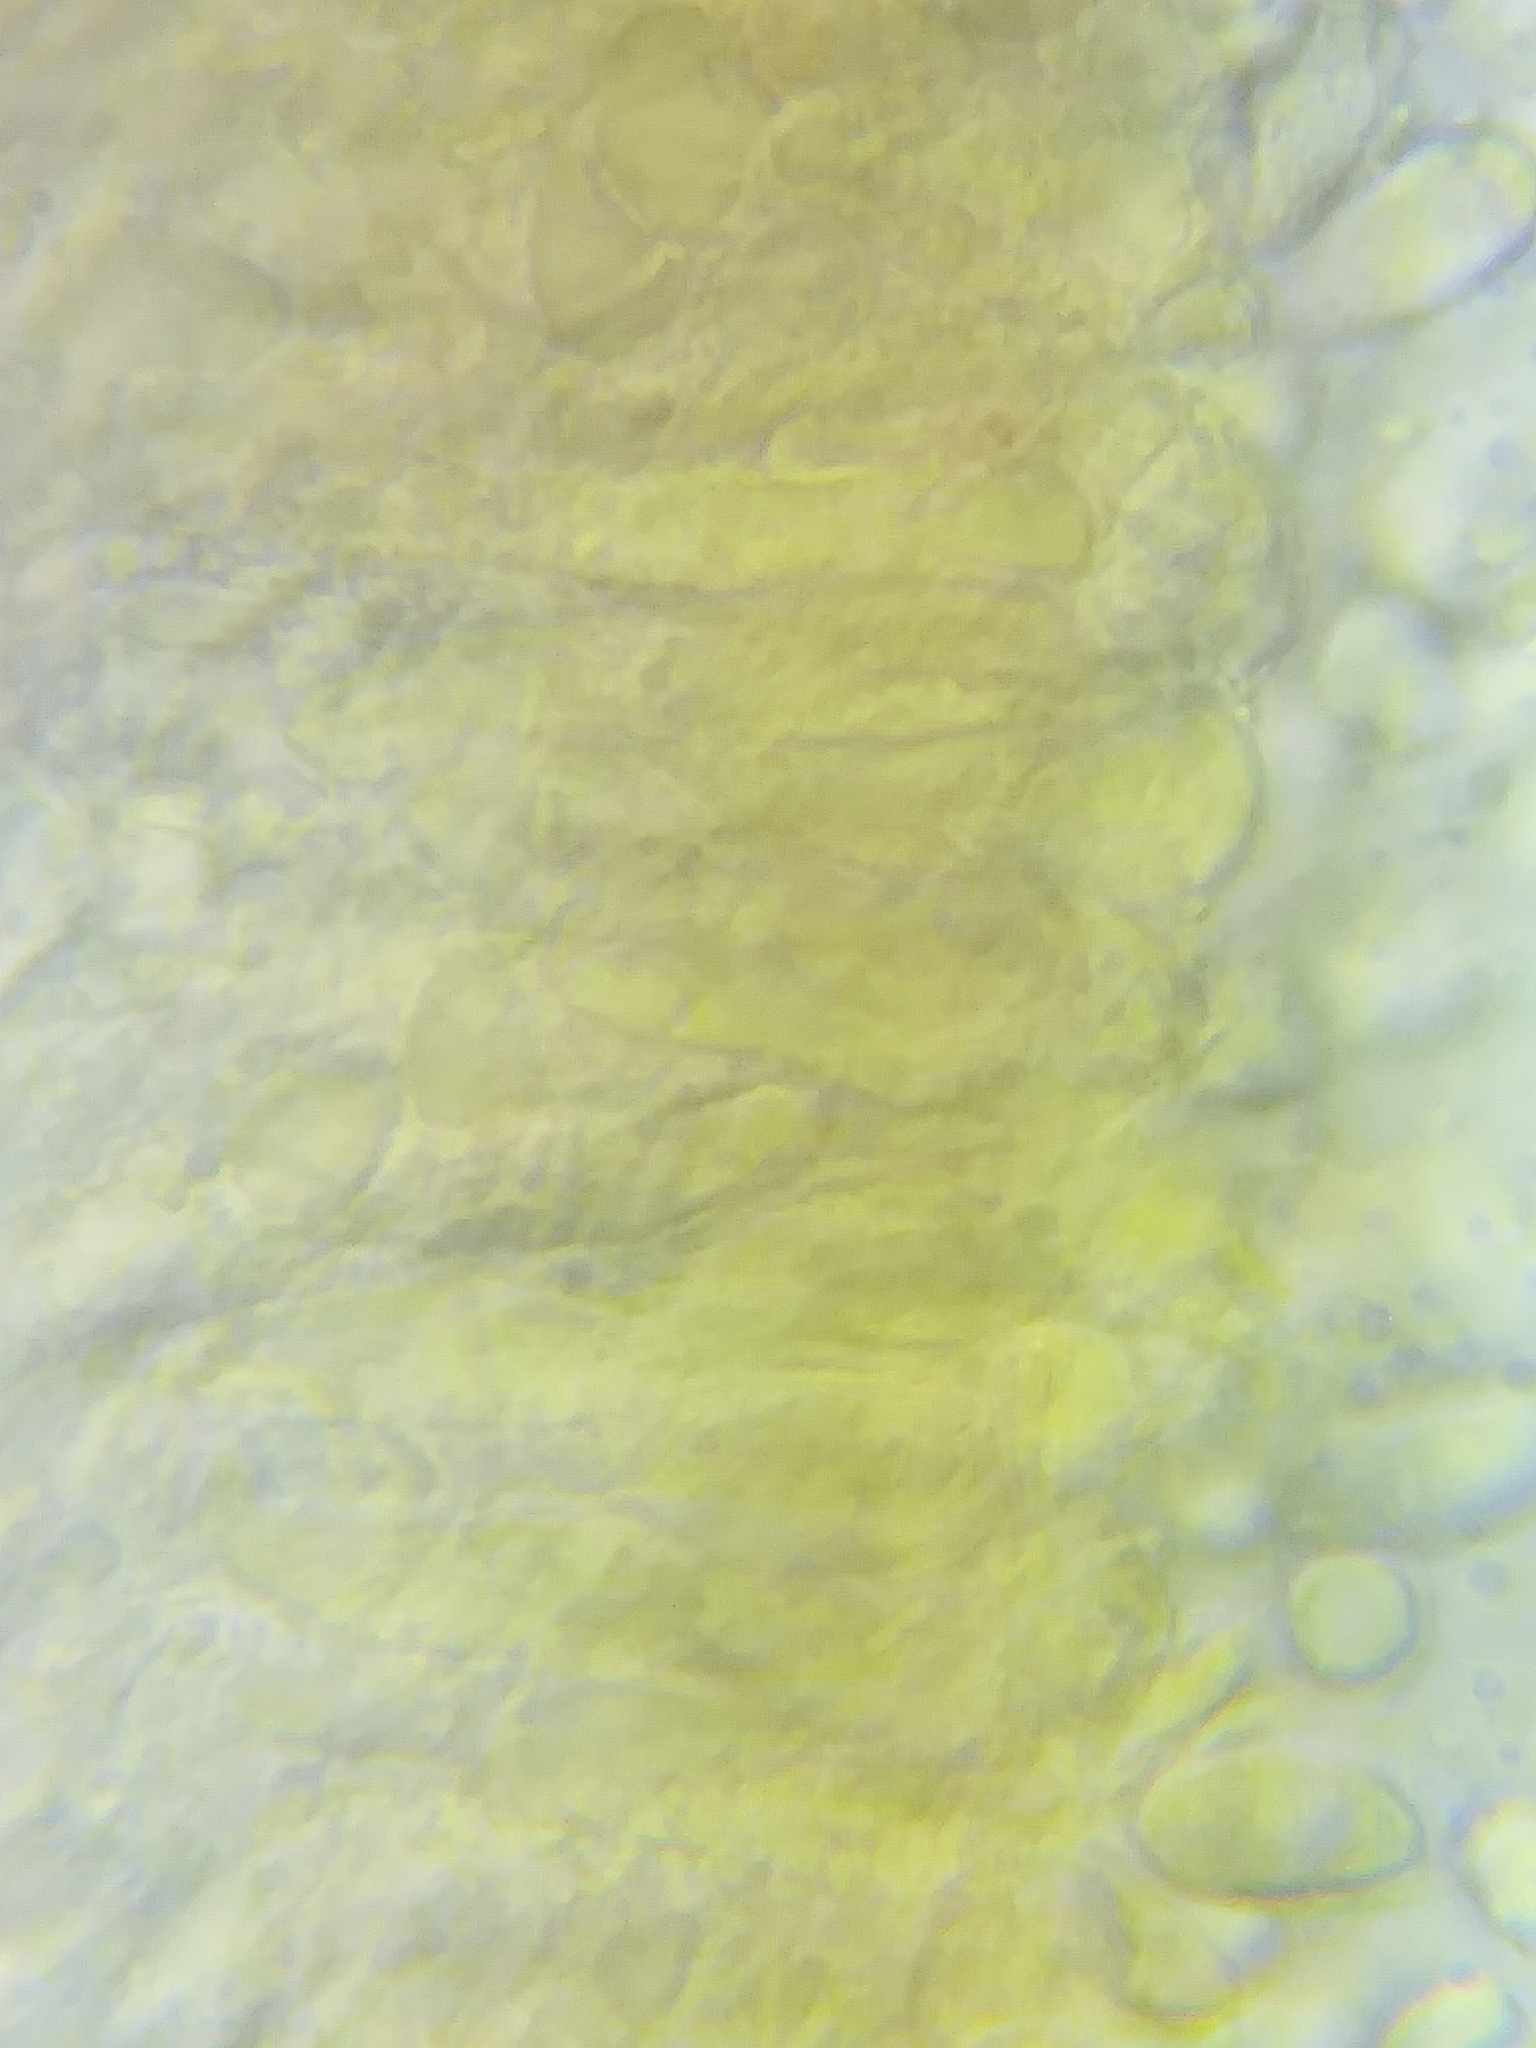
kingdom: Fungi
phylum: Basidiomycota
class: Agaricomycetes
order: Agaricales
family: Mycenaceae
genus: Mycena
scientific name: Mycena robusta
